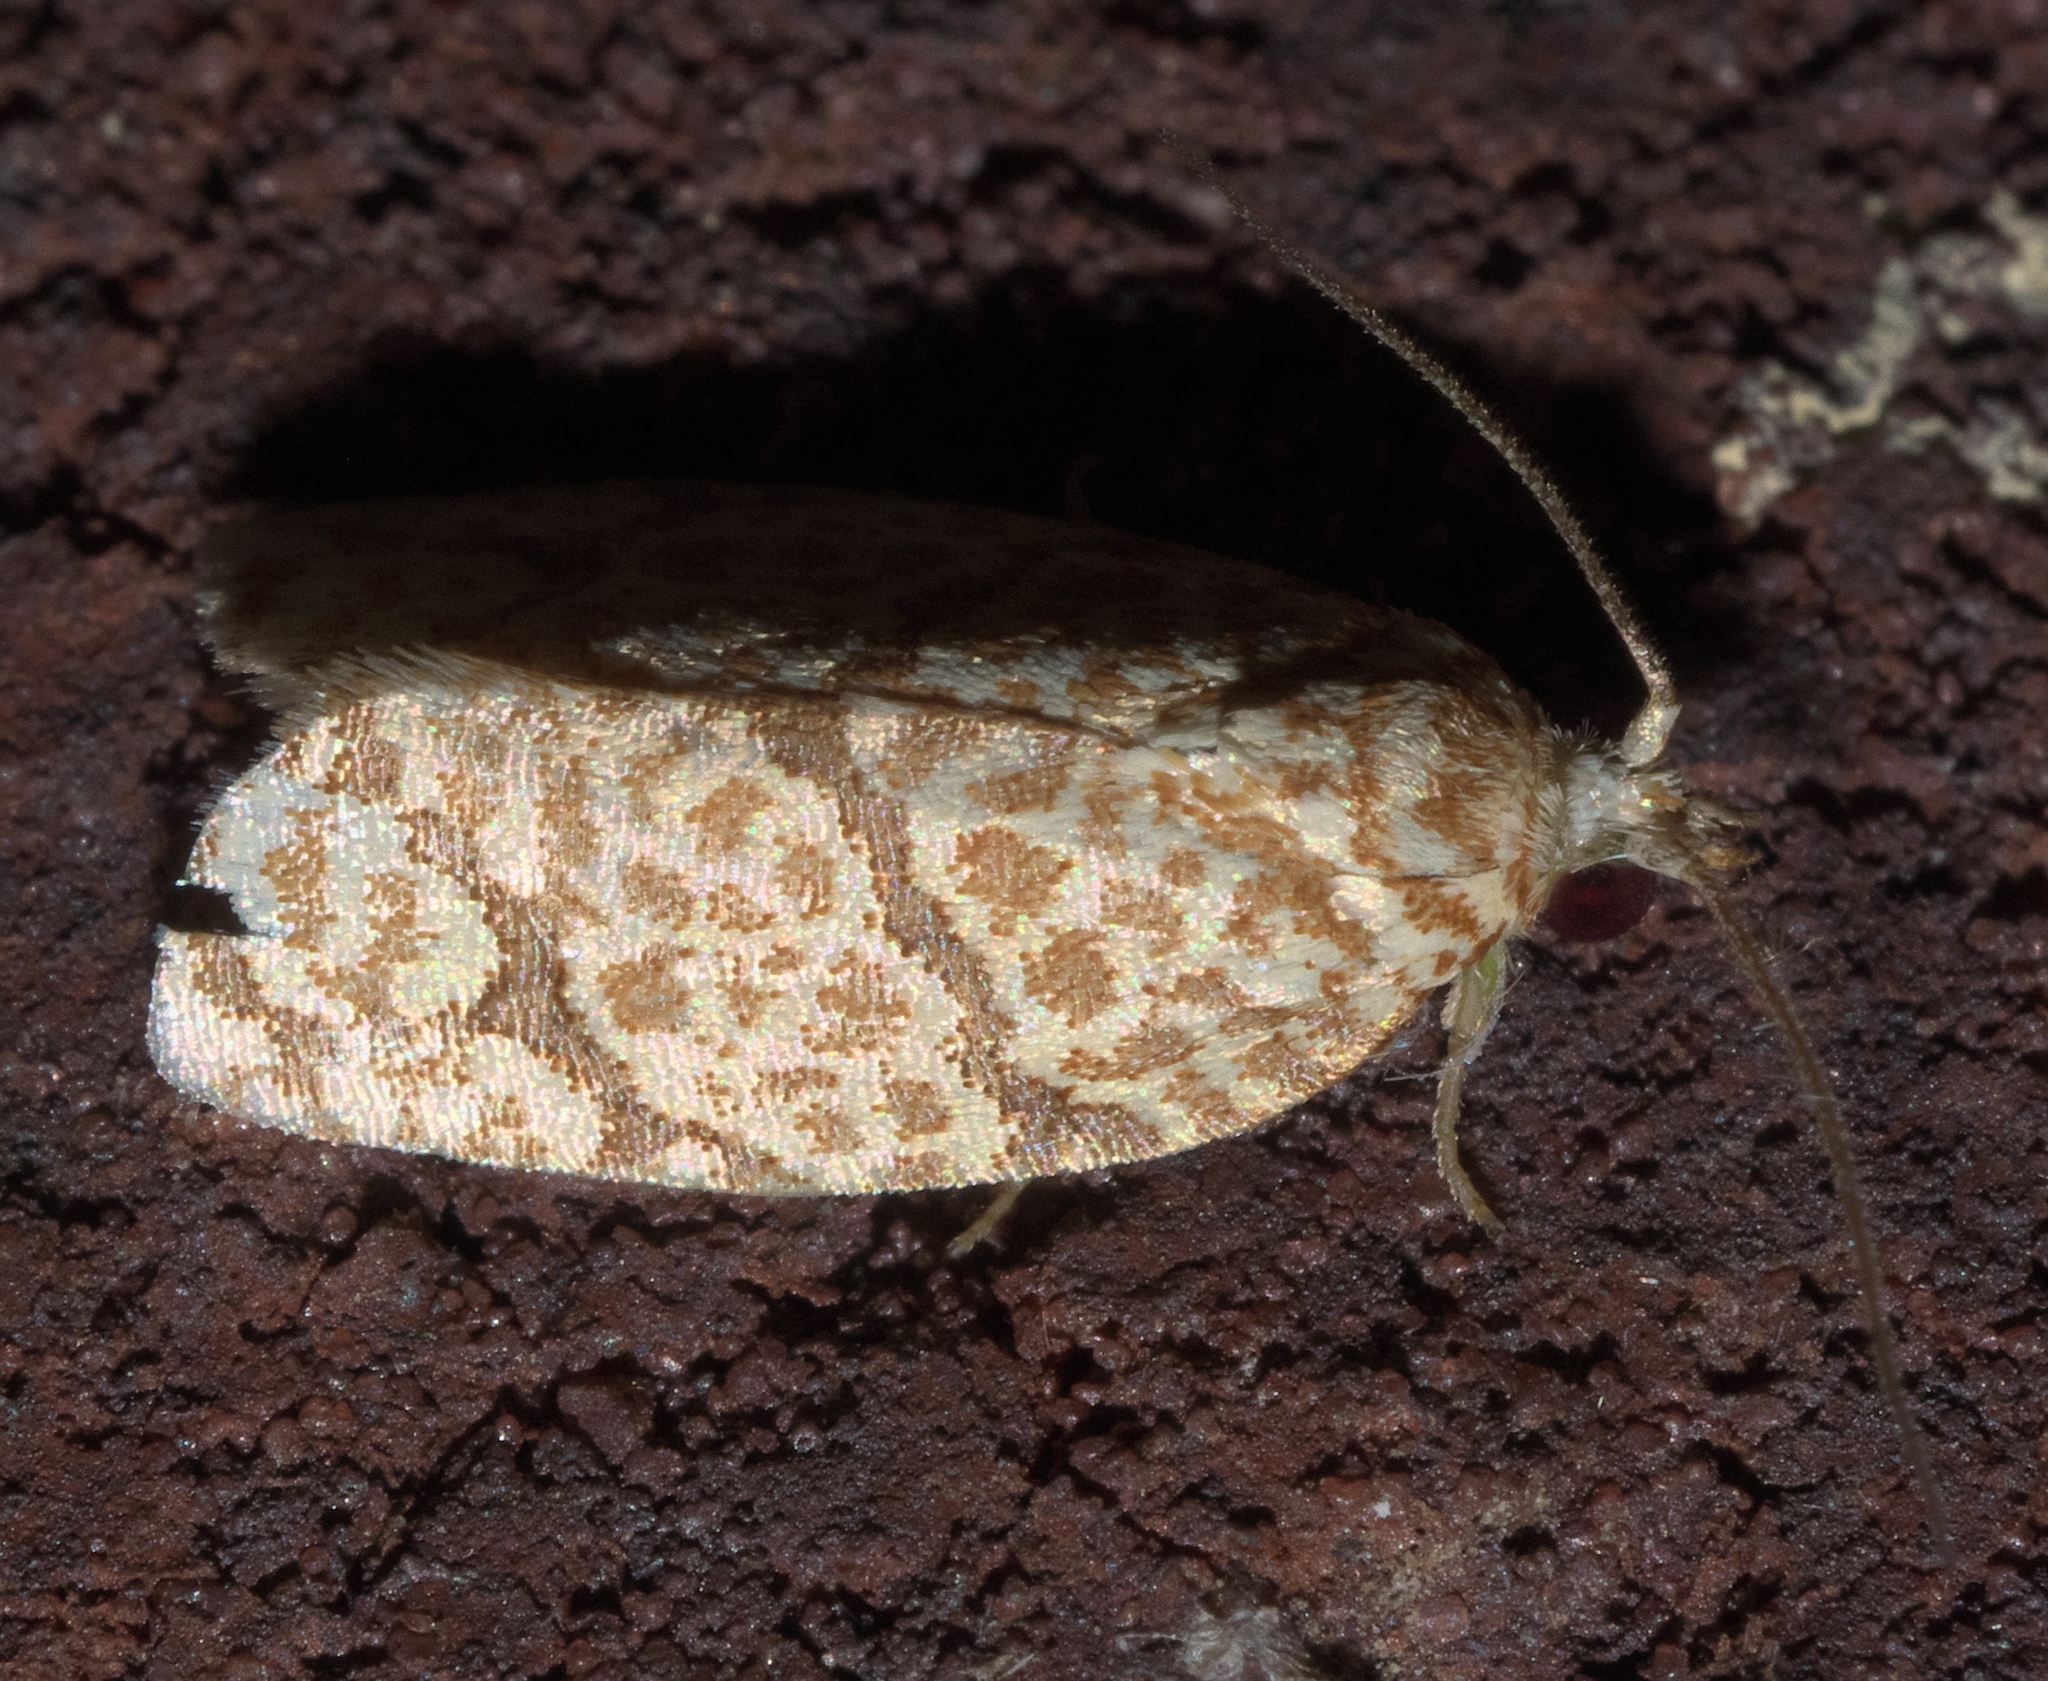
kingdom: Animalia
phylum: Arthropoda
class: Insecta
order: Lepidoptera
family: Tortricidae
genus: Argyrotaenia
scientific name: Argyrotaenia quercifoliana
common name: Yellow-winged oak leafroller moth
